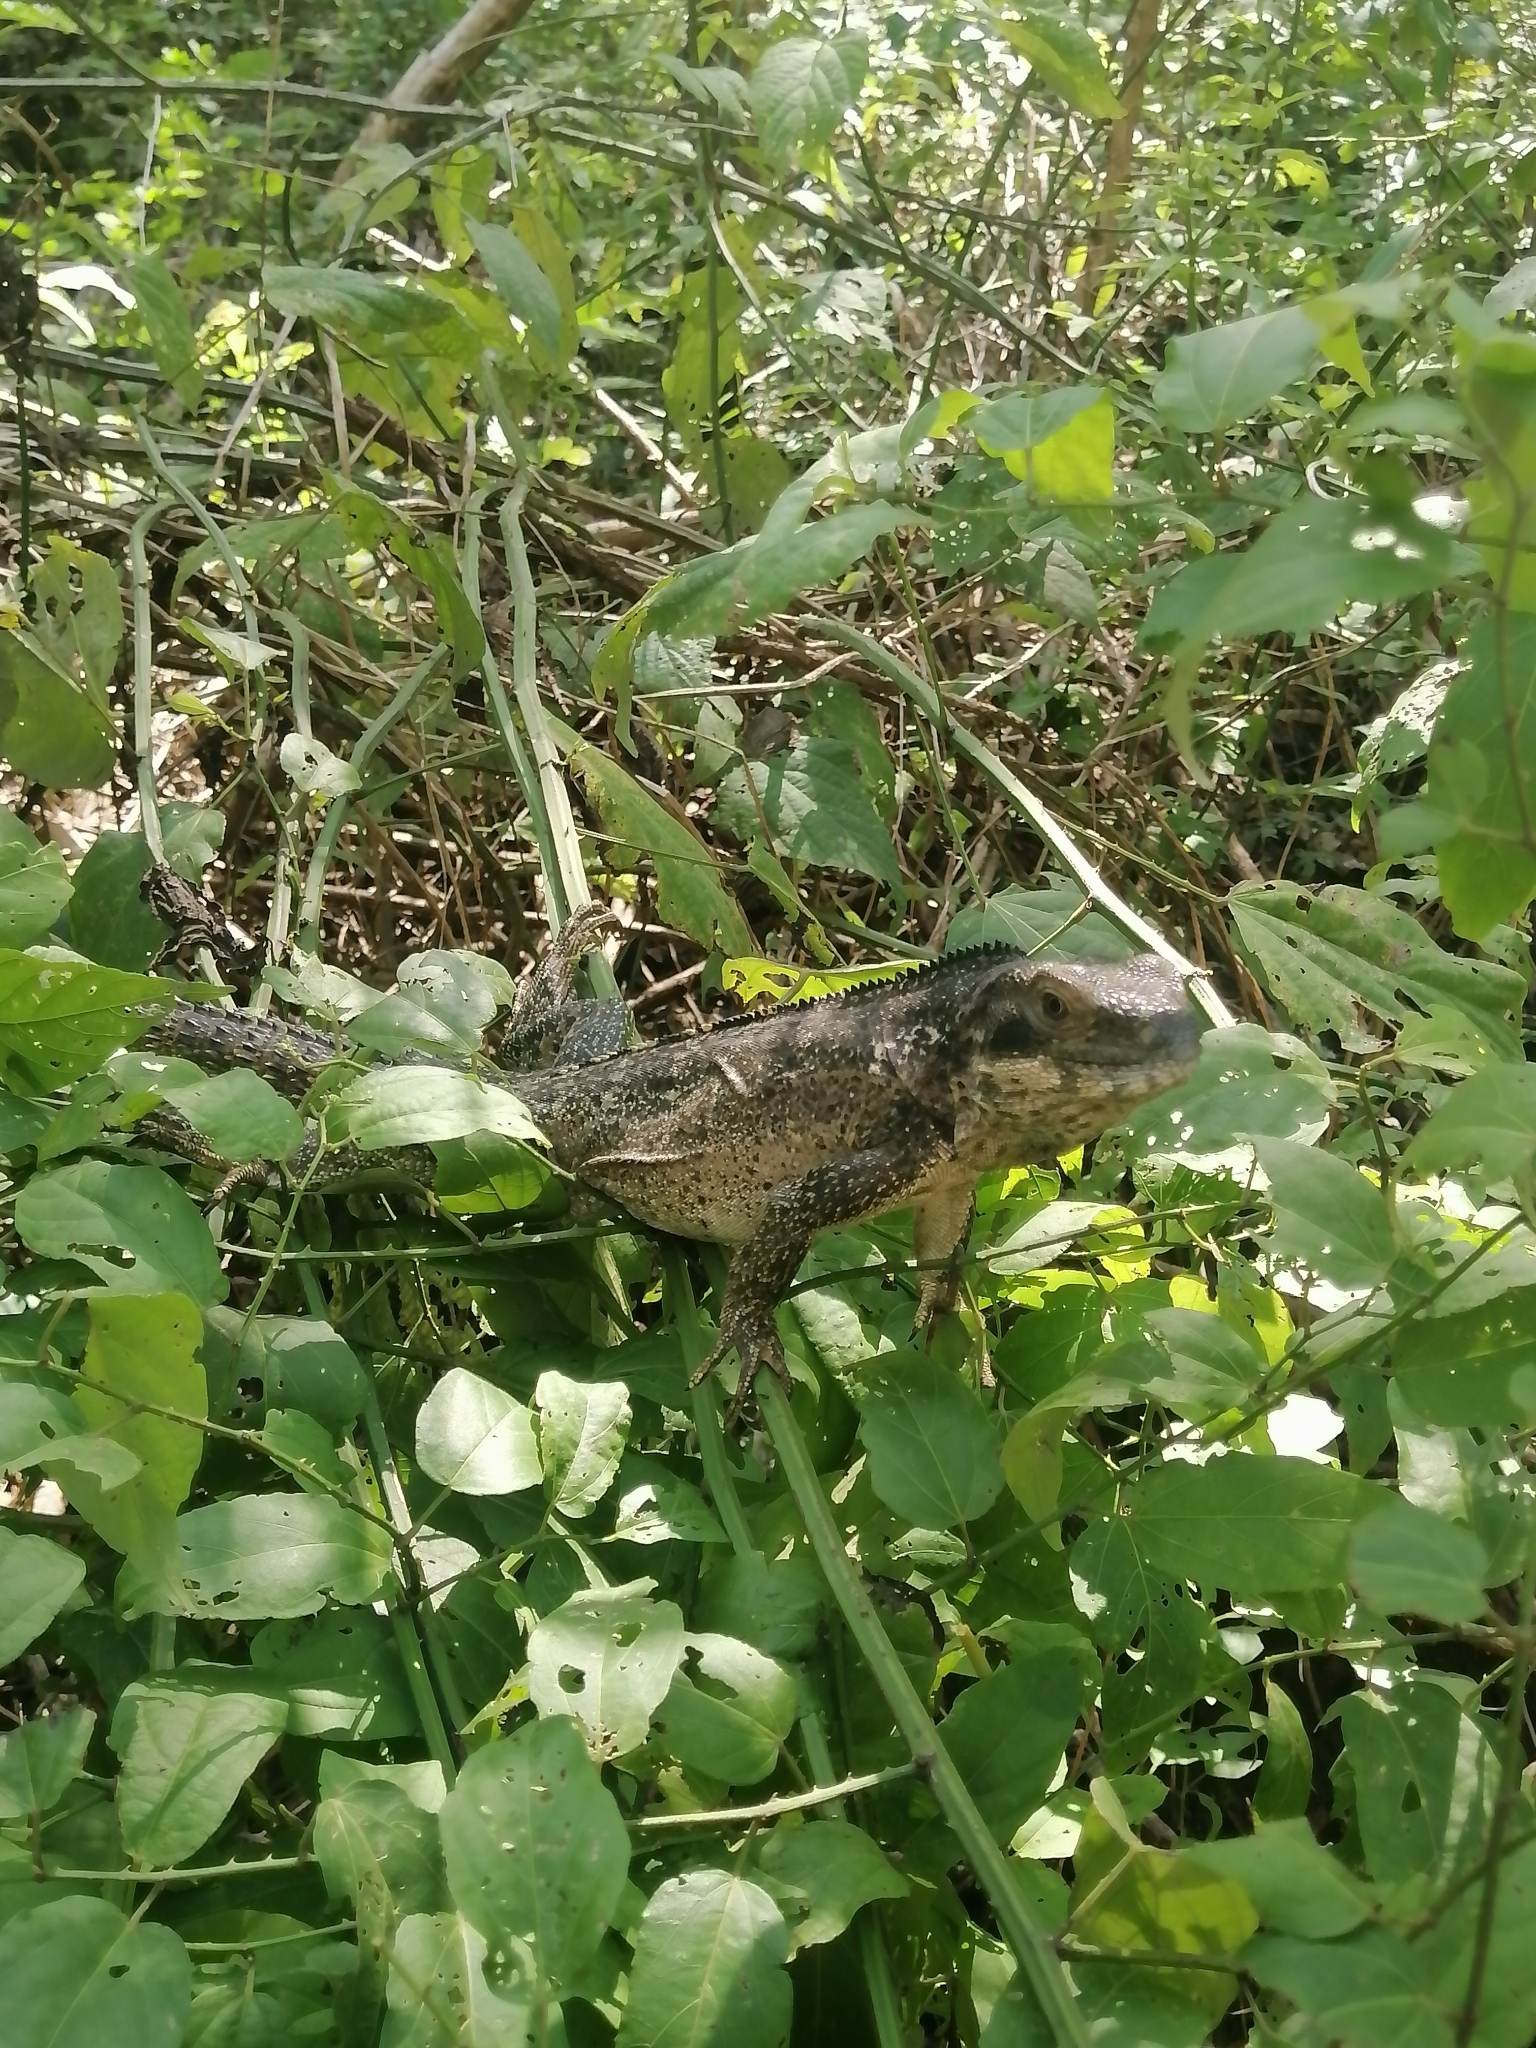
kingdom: Animalia
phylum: Chordata
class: Squamata
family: Iguanidae
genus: Ctenosaura
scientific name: Ctenosaura pectinata
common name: Guerreran spiny-tailed iguana
